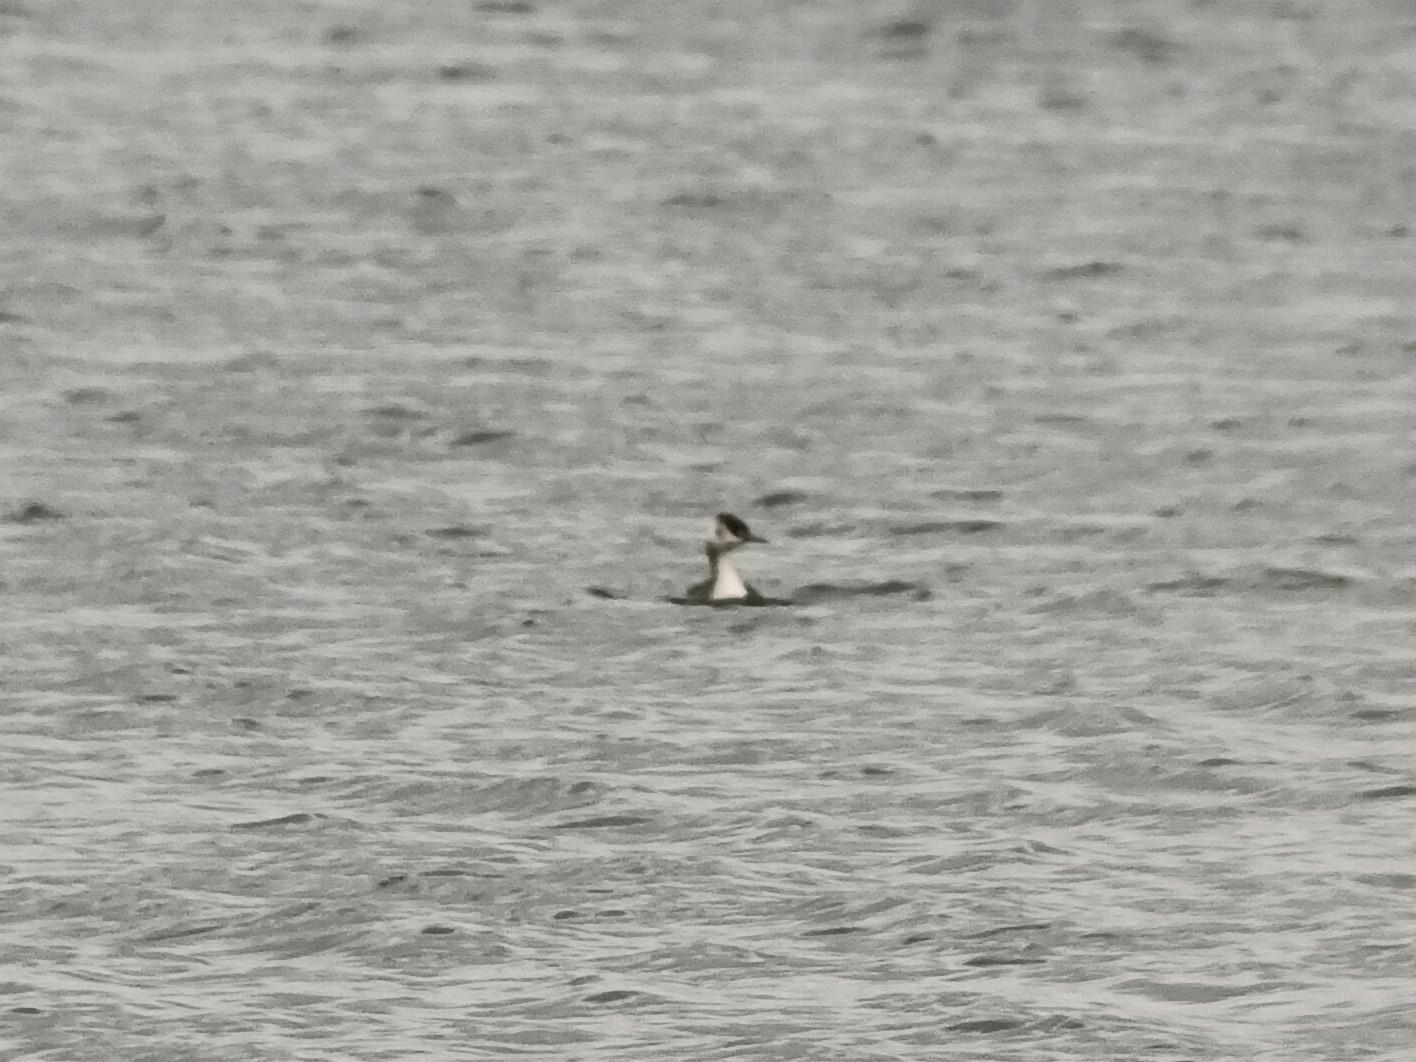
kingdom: Animalia
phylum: Chordata
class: Aves
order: Podicipediformes
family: Podicipedidae
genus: Podiceps
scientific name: Podiceps cristatus
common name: Great crested grebe
